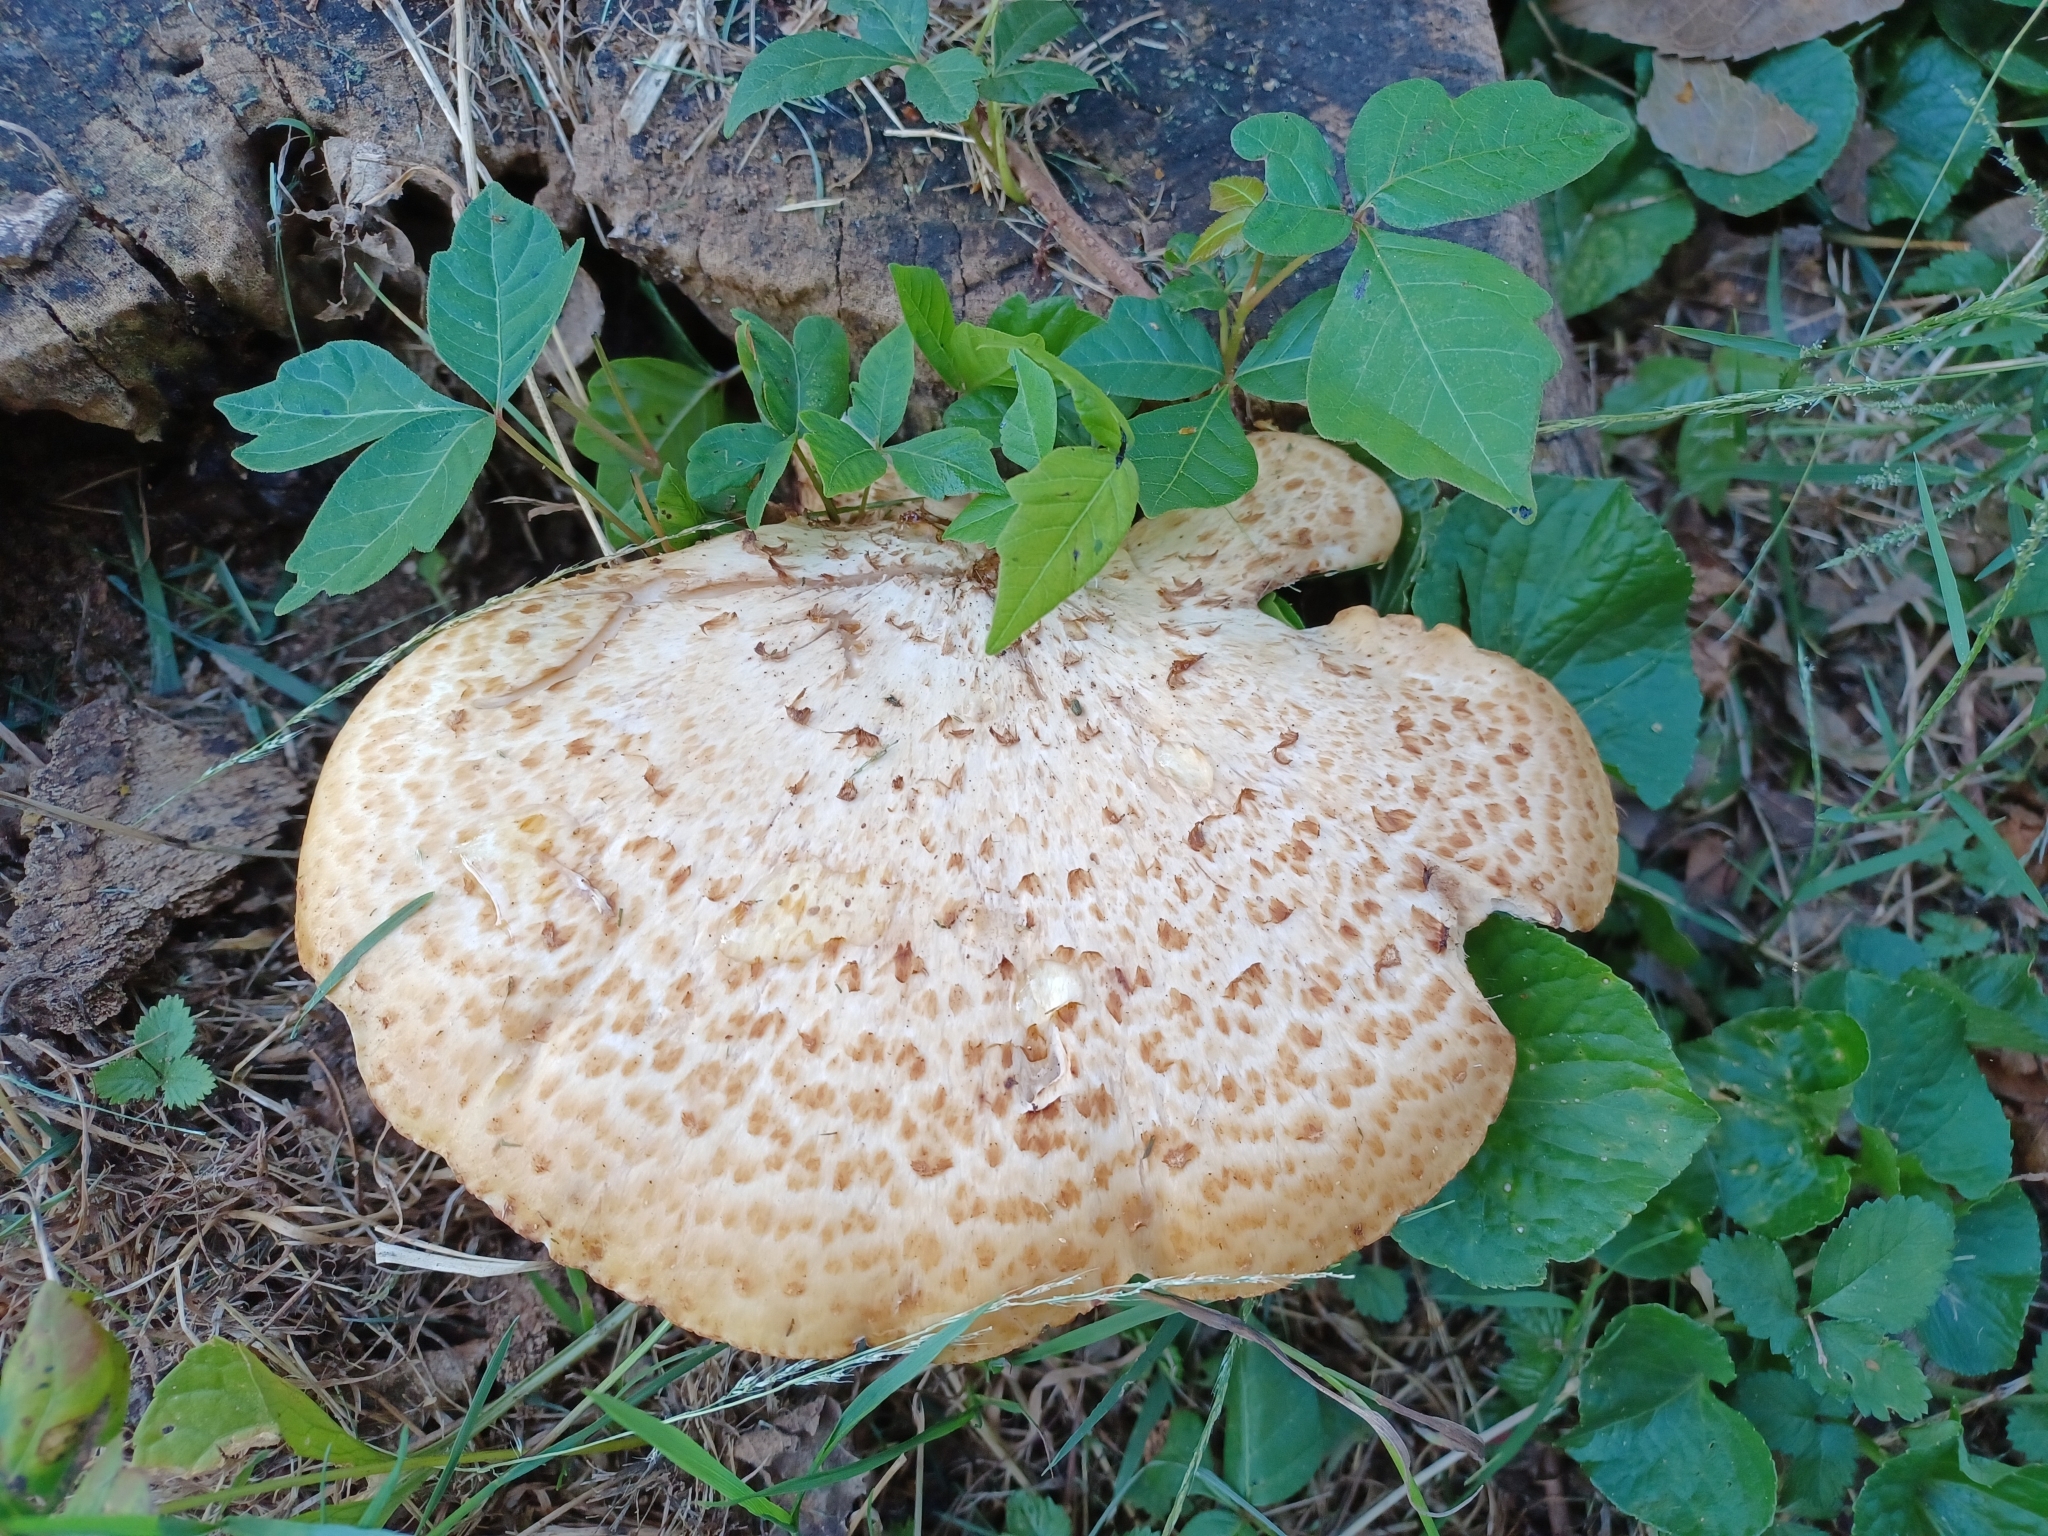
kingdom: Fungi
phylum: Basidiomycota
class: Agaricomycetes
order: Polyporales
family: Polyporaceae
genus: Cerioporus
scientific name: Cerioporus squamosus
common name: Dryad's saddle
